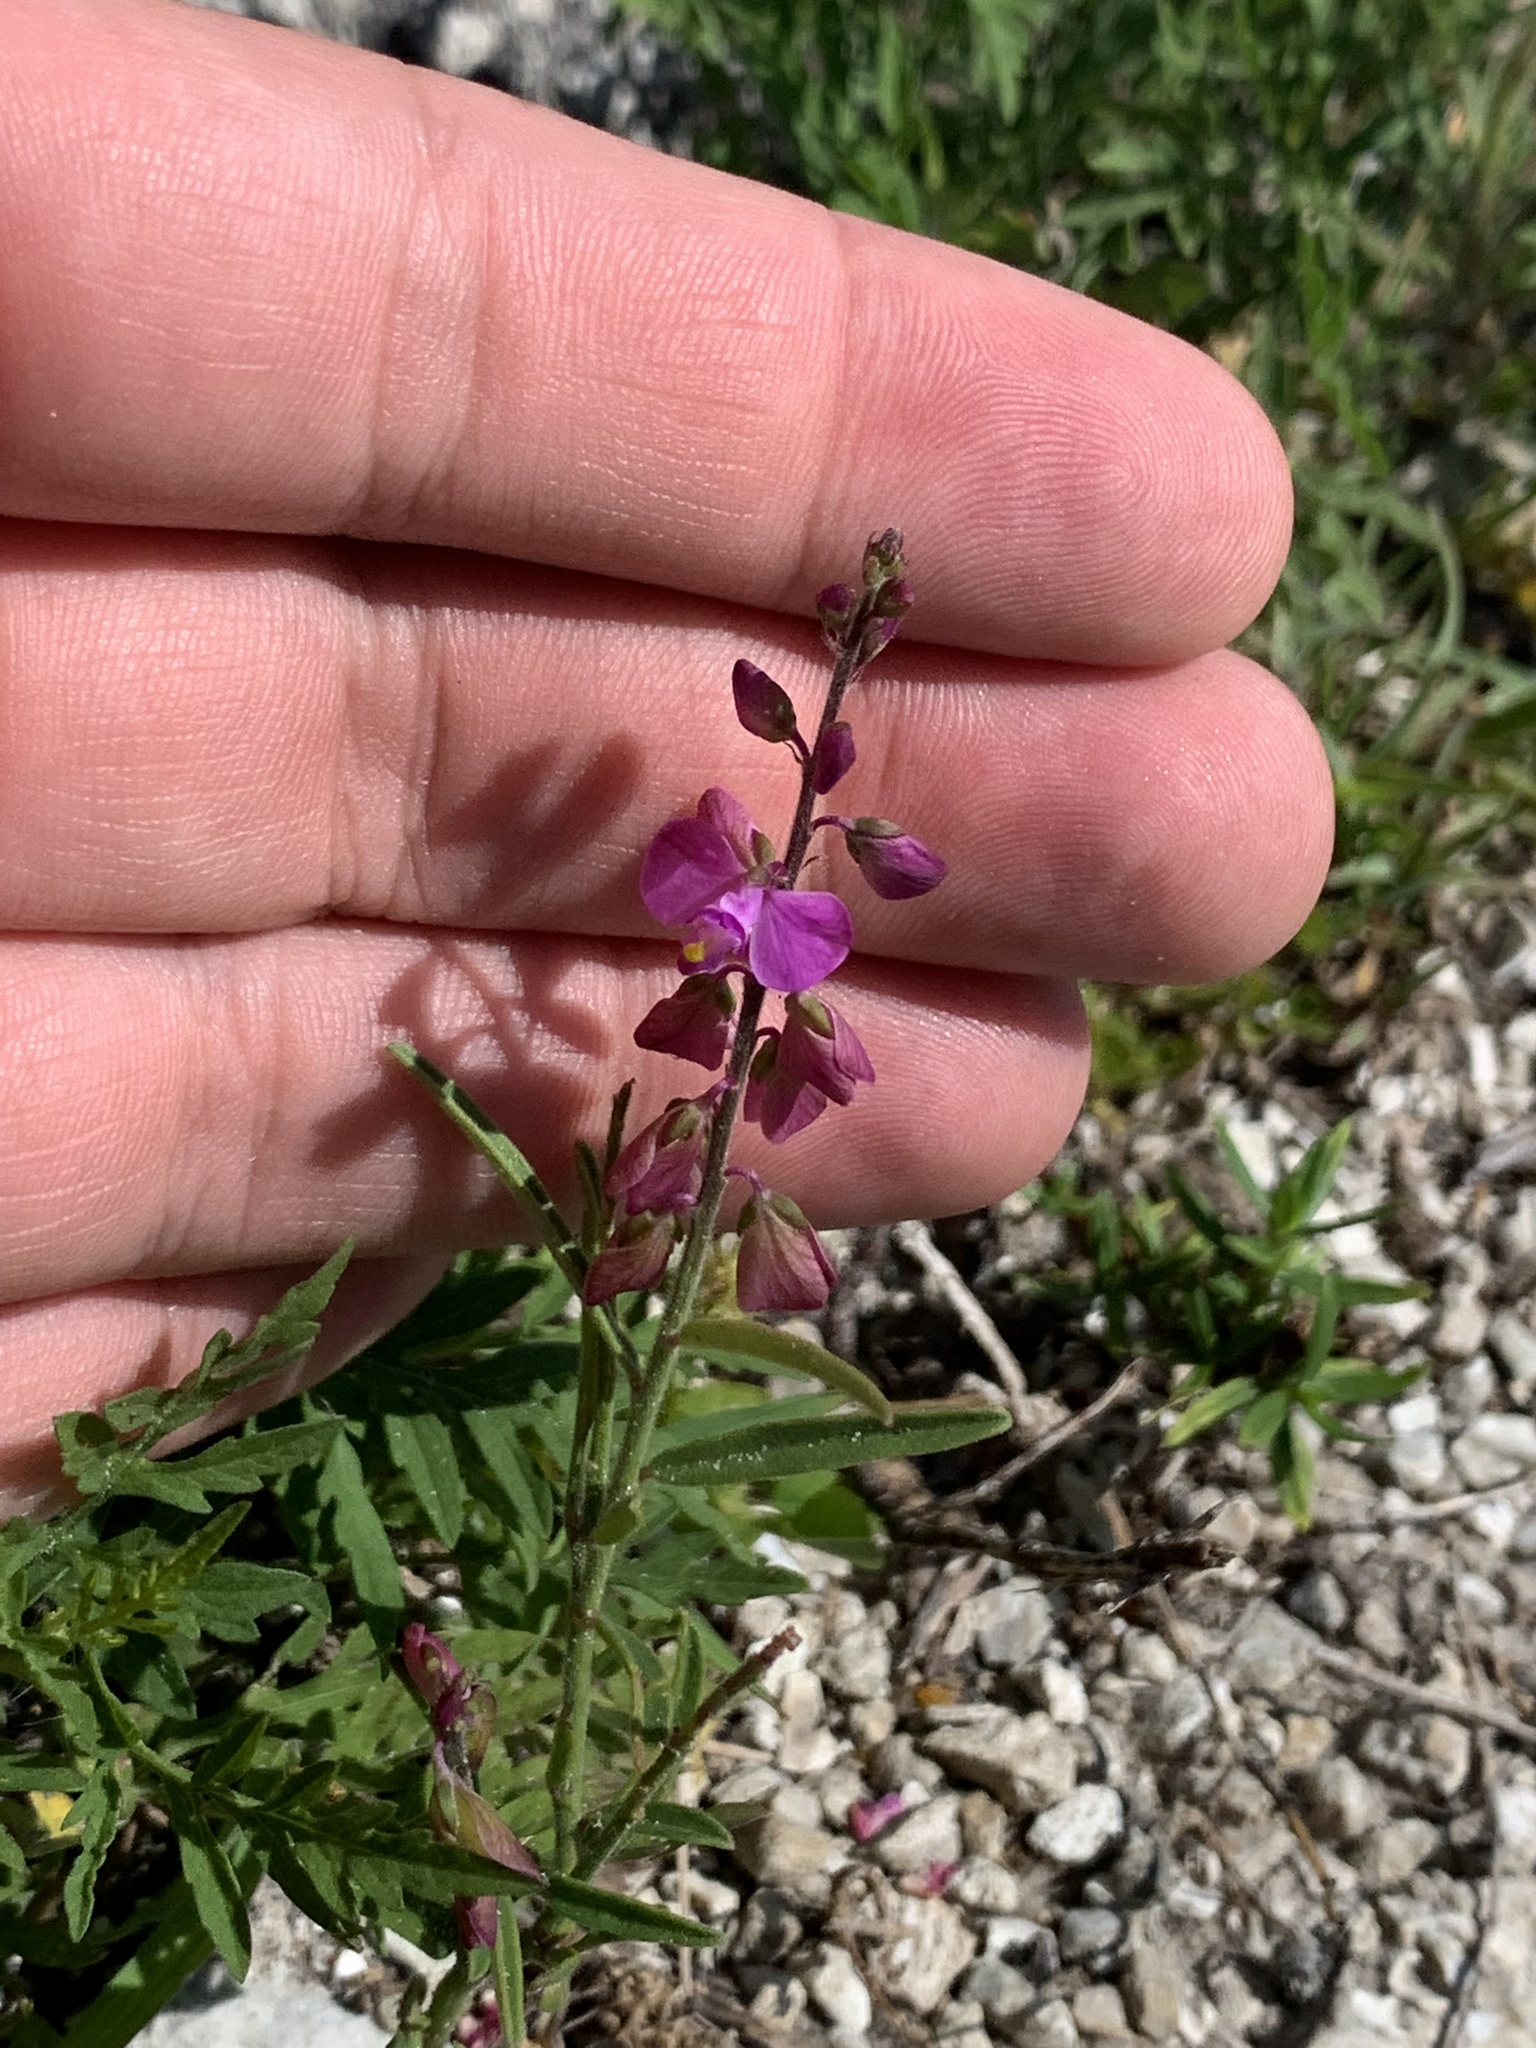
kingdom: Plantae
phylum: Tracheophyta
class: Magnoliopsida
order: Fabales
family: Polygalaceae
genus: Asemeia
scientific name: Asemeia grandiflora
